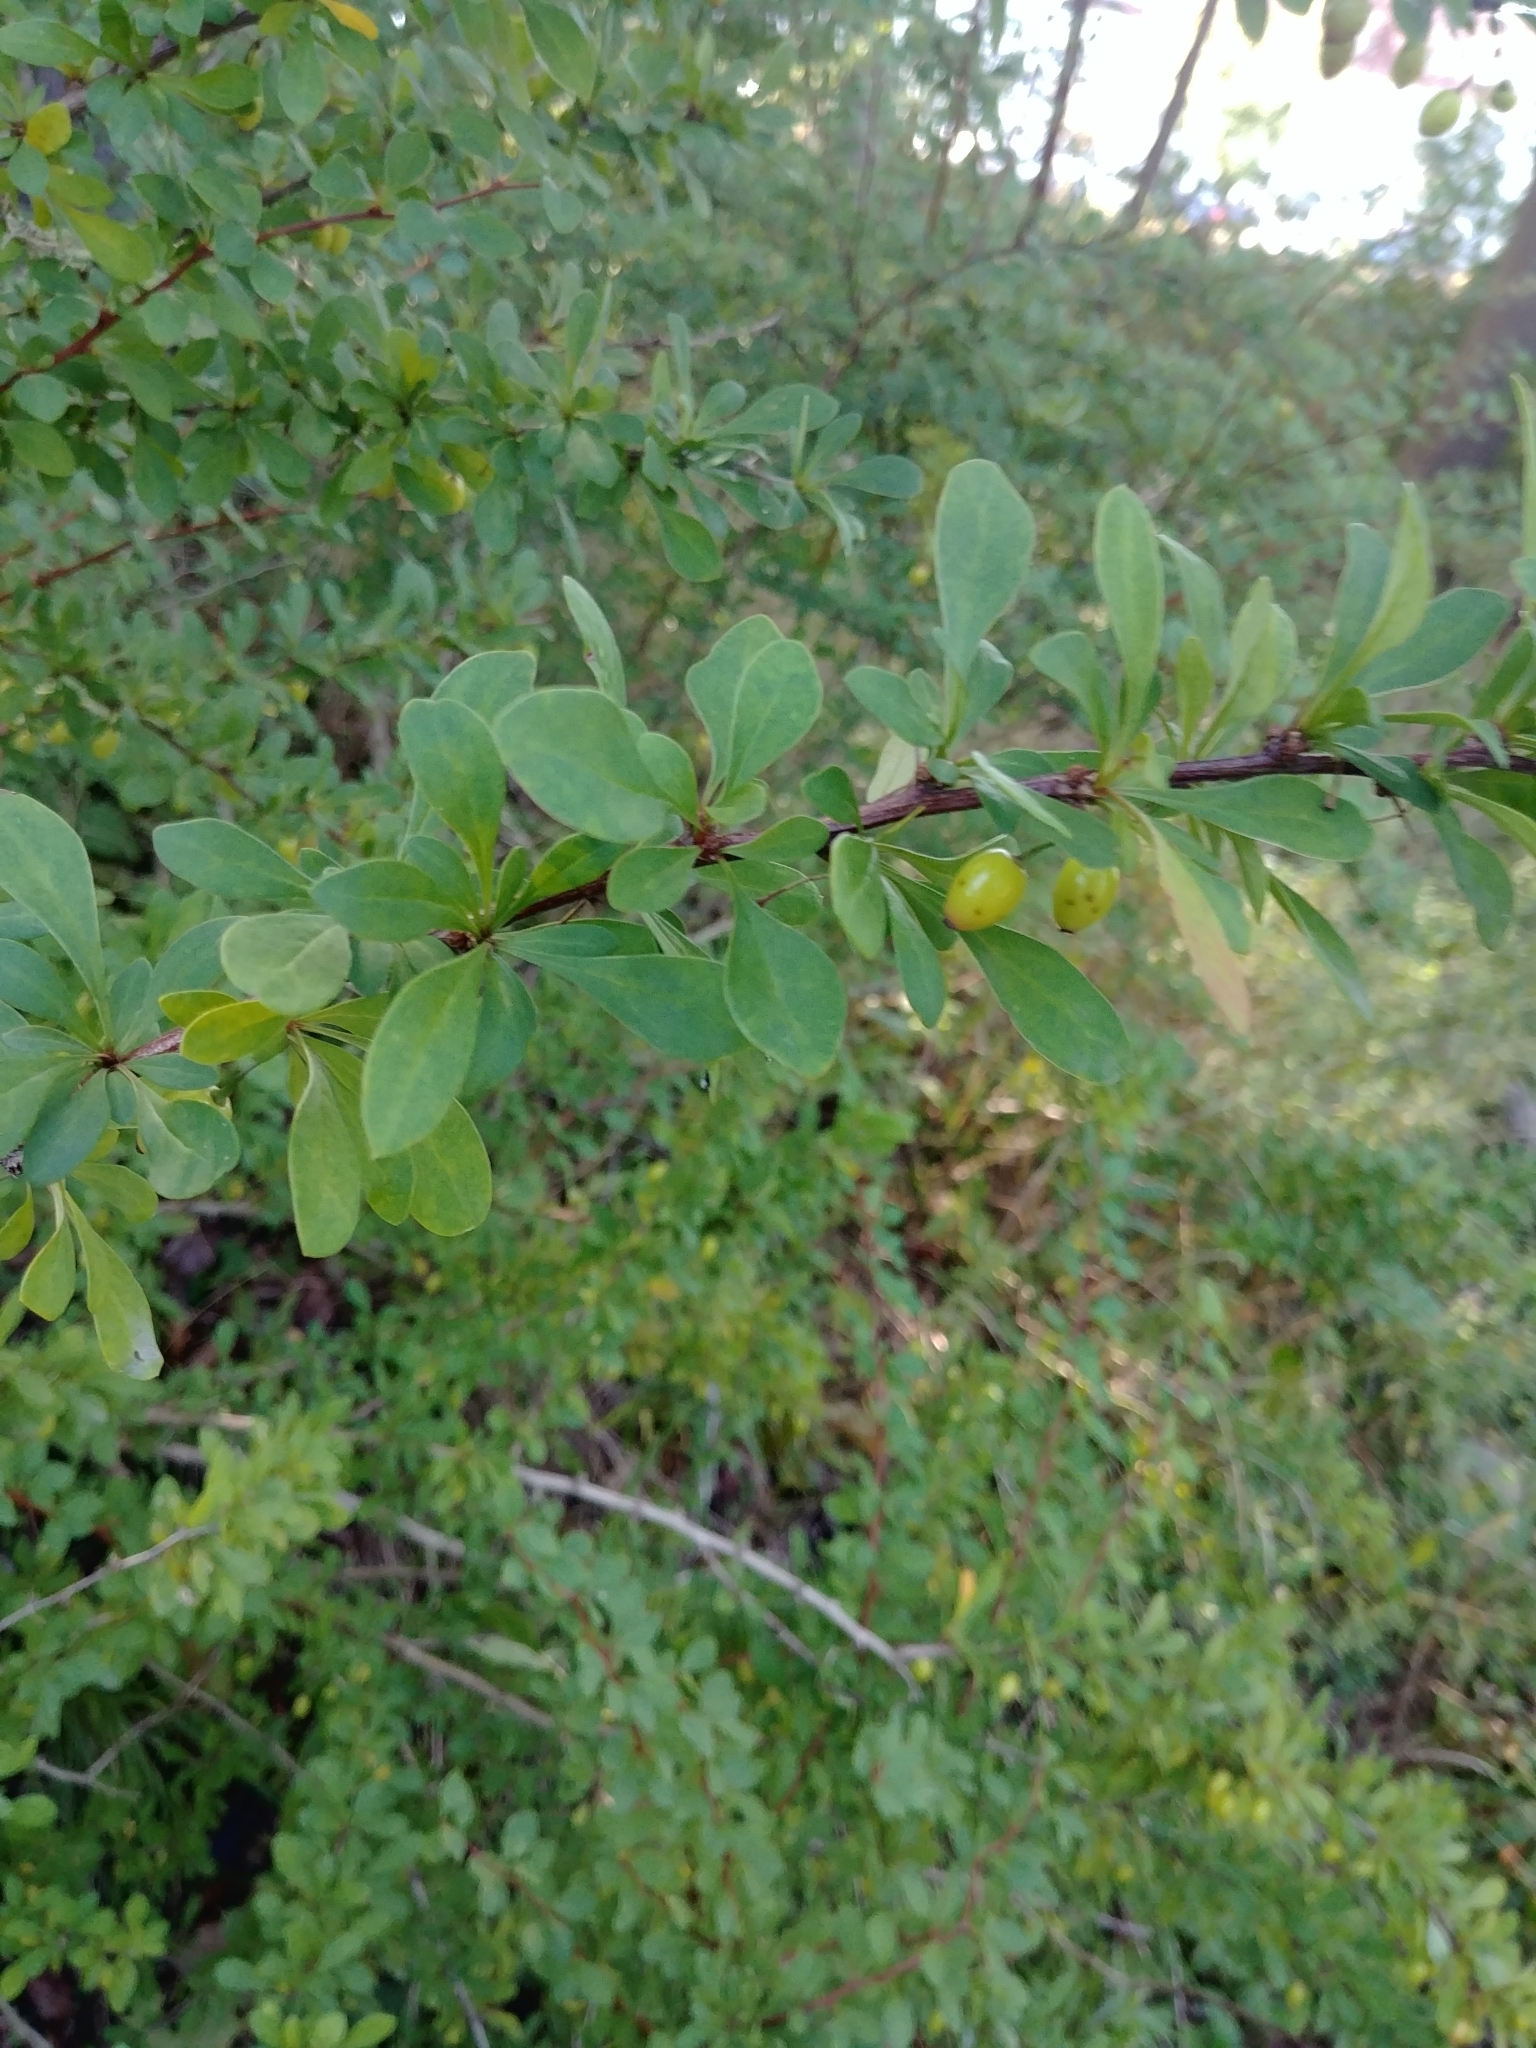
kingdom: Plantae
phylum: Tracheophyta
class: Magnoliopsida
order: Ranunculales
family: Berberidaceae
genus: Berberis
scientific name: Berberis thunbergii
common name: Japanese barberry
